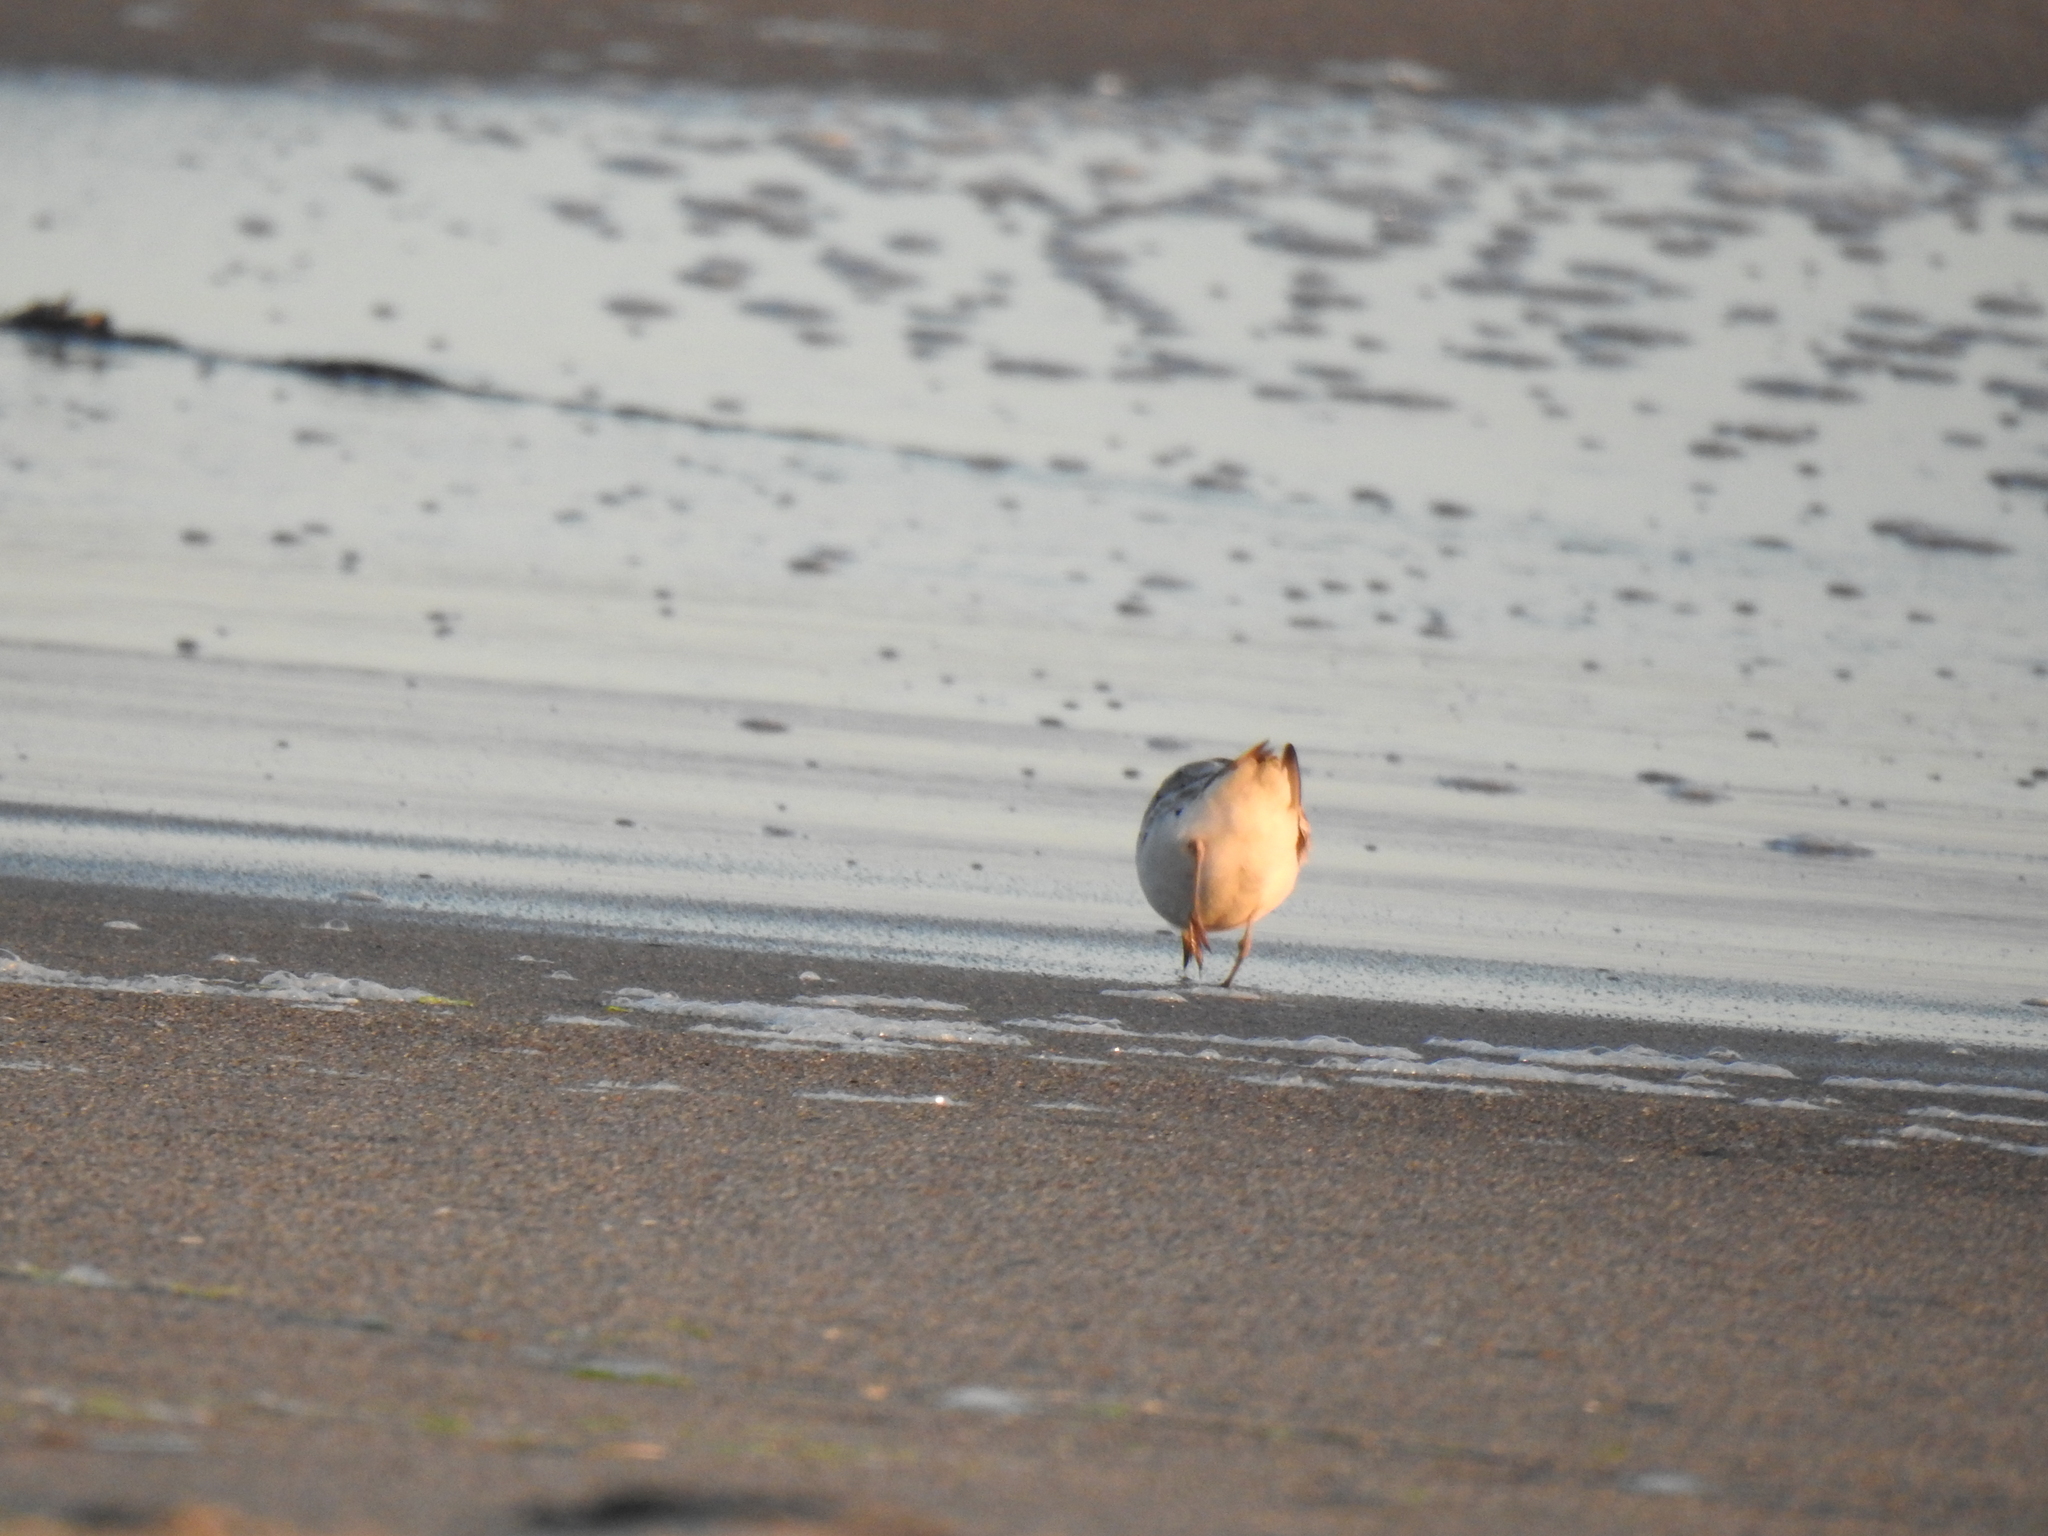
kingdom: Animalia
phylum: Chordata
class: Aves
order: Charadriiformes
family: Charadriidae
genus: Anarhynchus
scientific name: Anarhynchus
